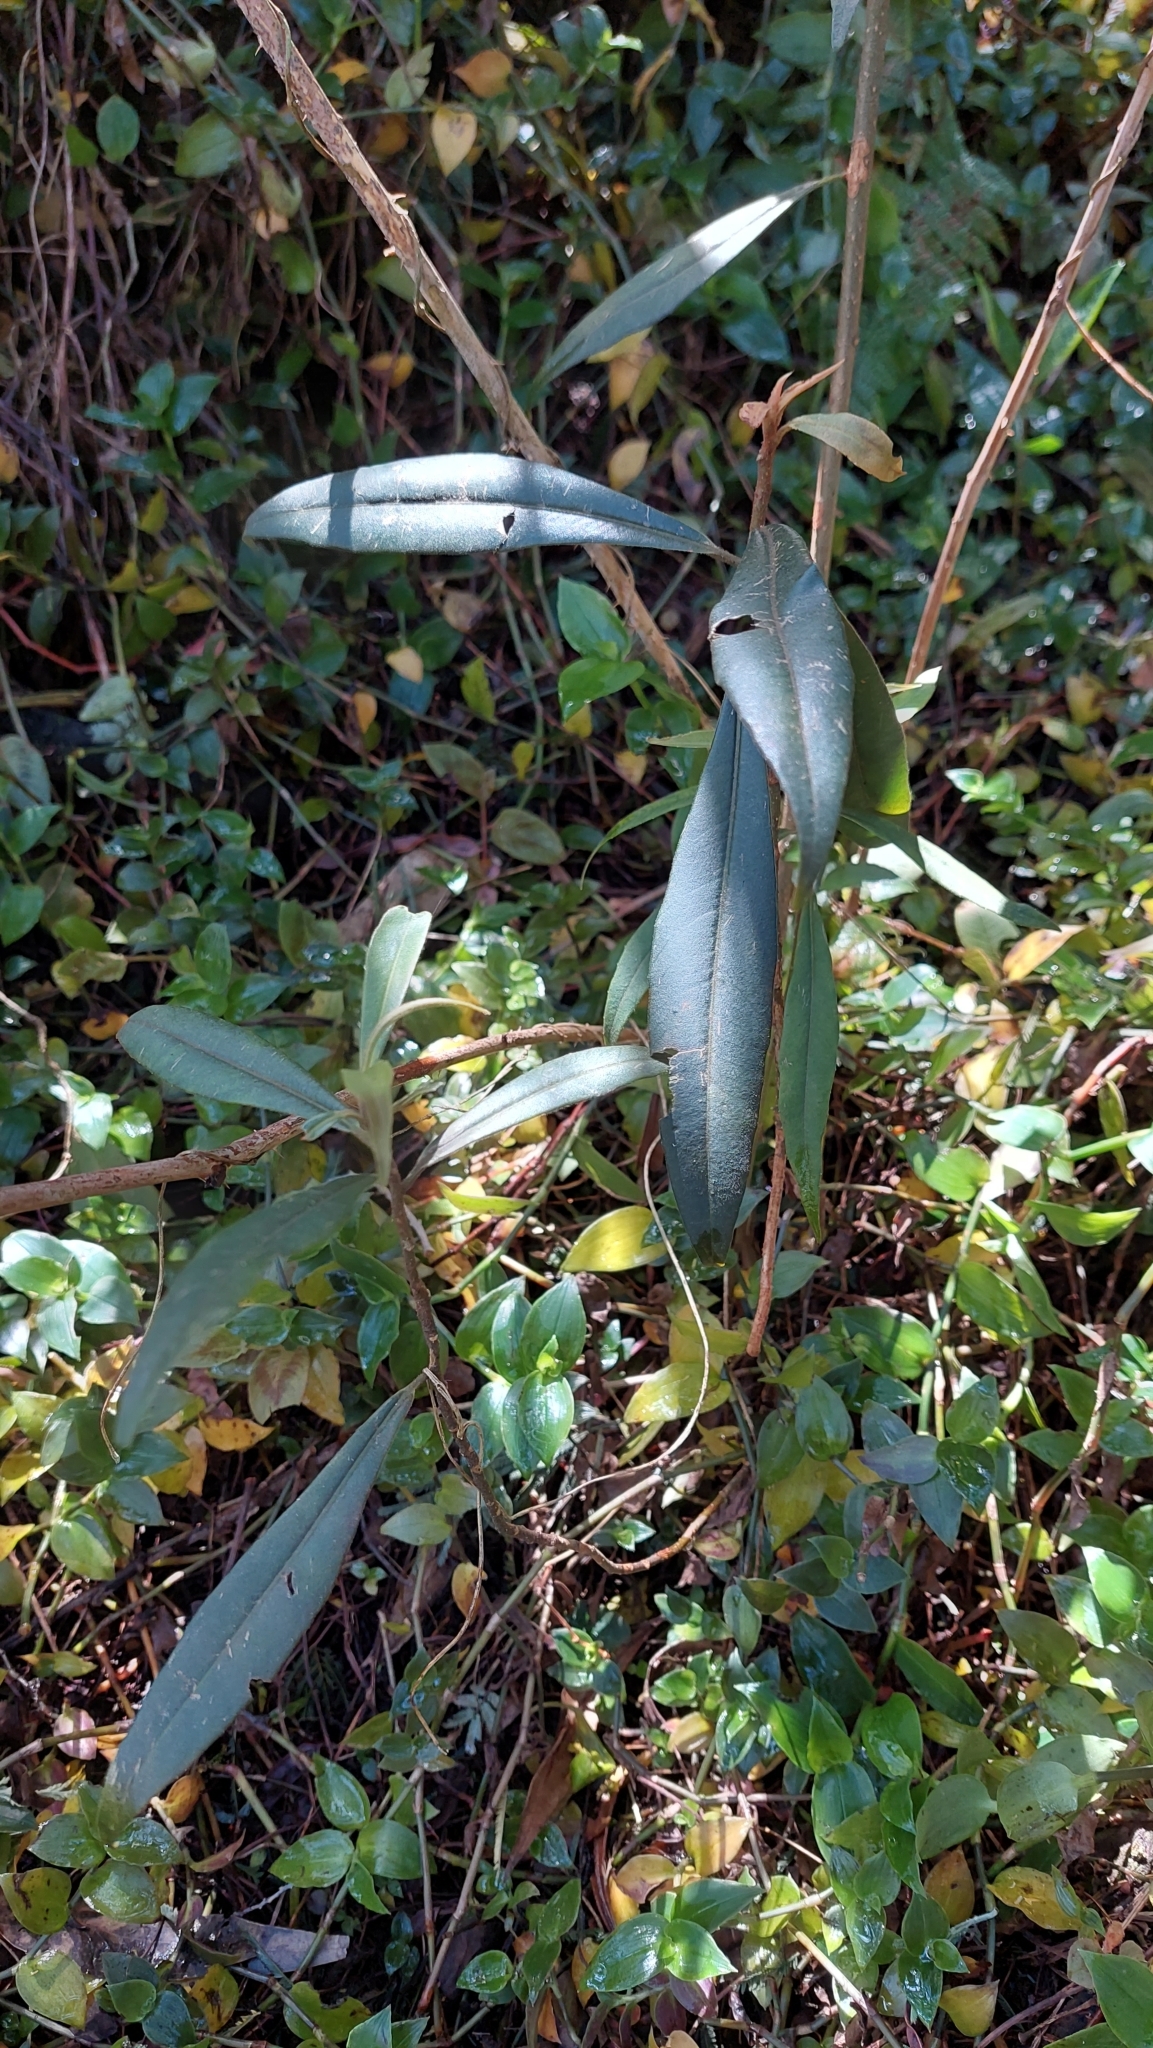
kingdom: Plantae
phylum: Tracheophyta
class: Magnoliopsida
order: Ericales
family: Primulaceae
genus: Myrsine
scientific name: Myrsine coriacea
